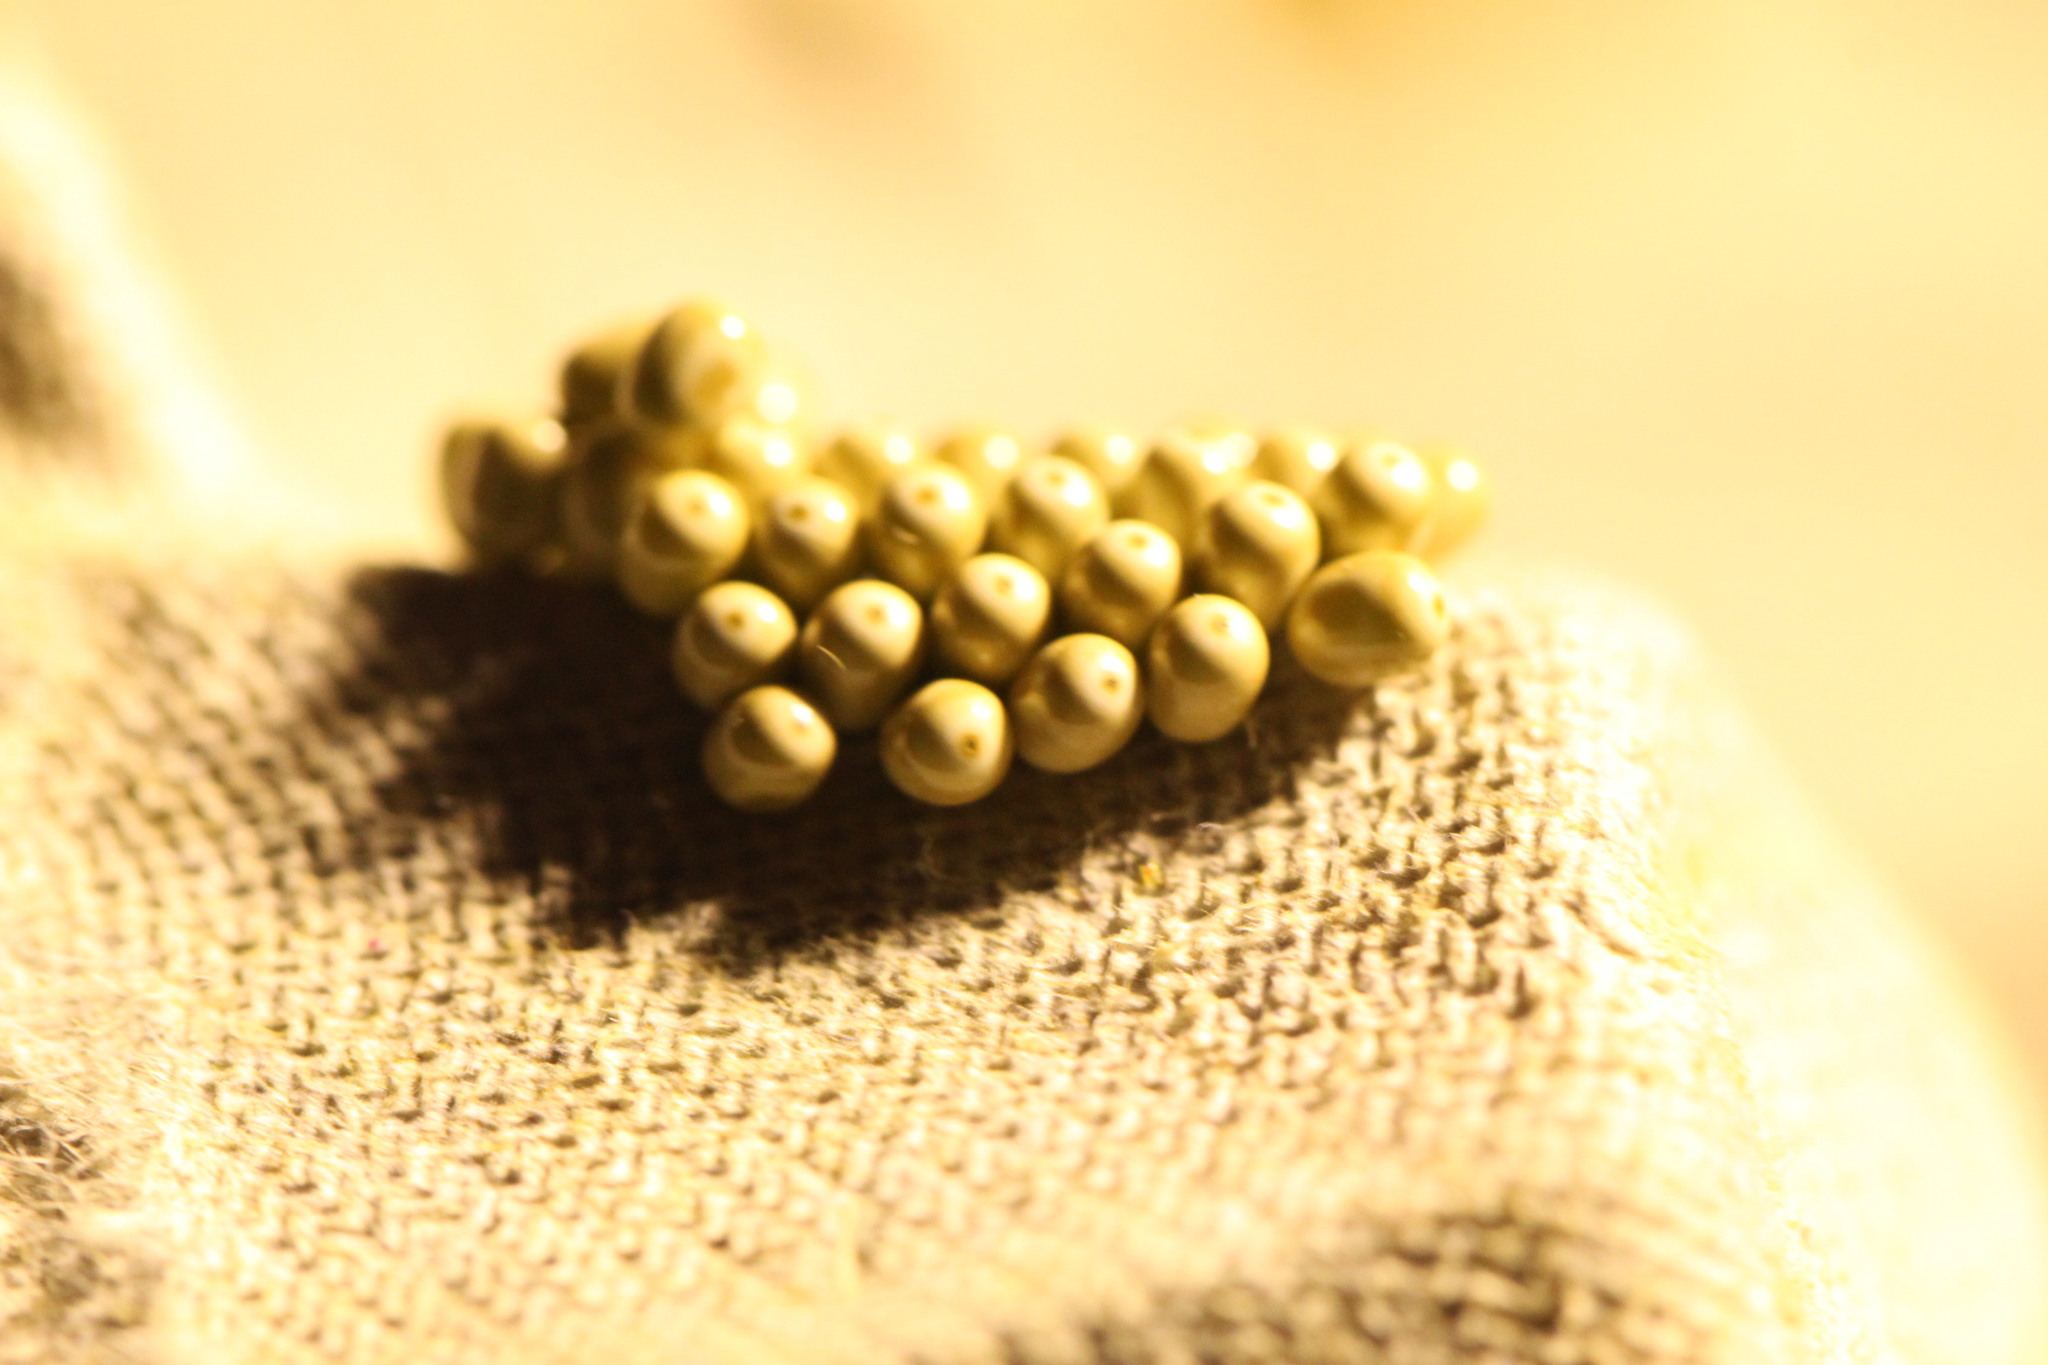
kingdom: Animalia
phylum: Arthropoda
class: Insecta
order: Lepidoptera
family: Lasiocampidae
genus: Macrothylacia
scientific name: Macrothylacia rubi
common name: Fox moth
